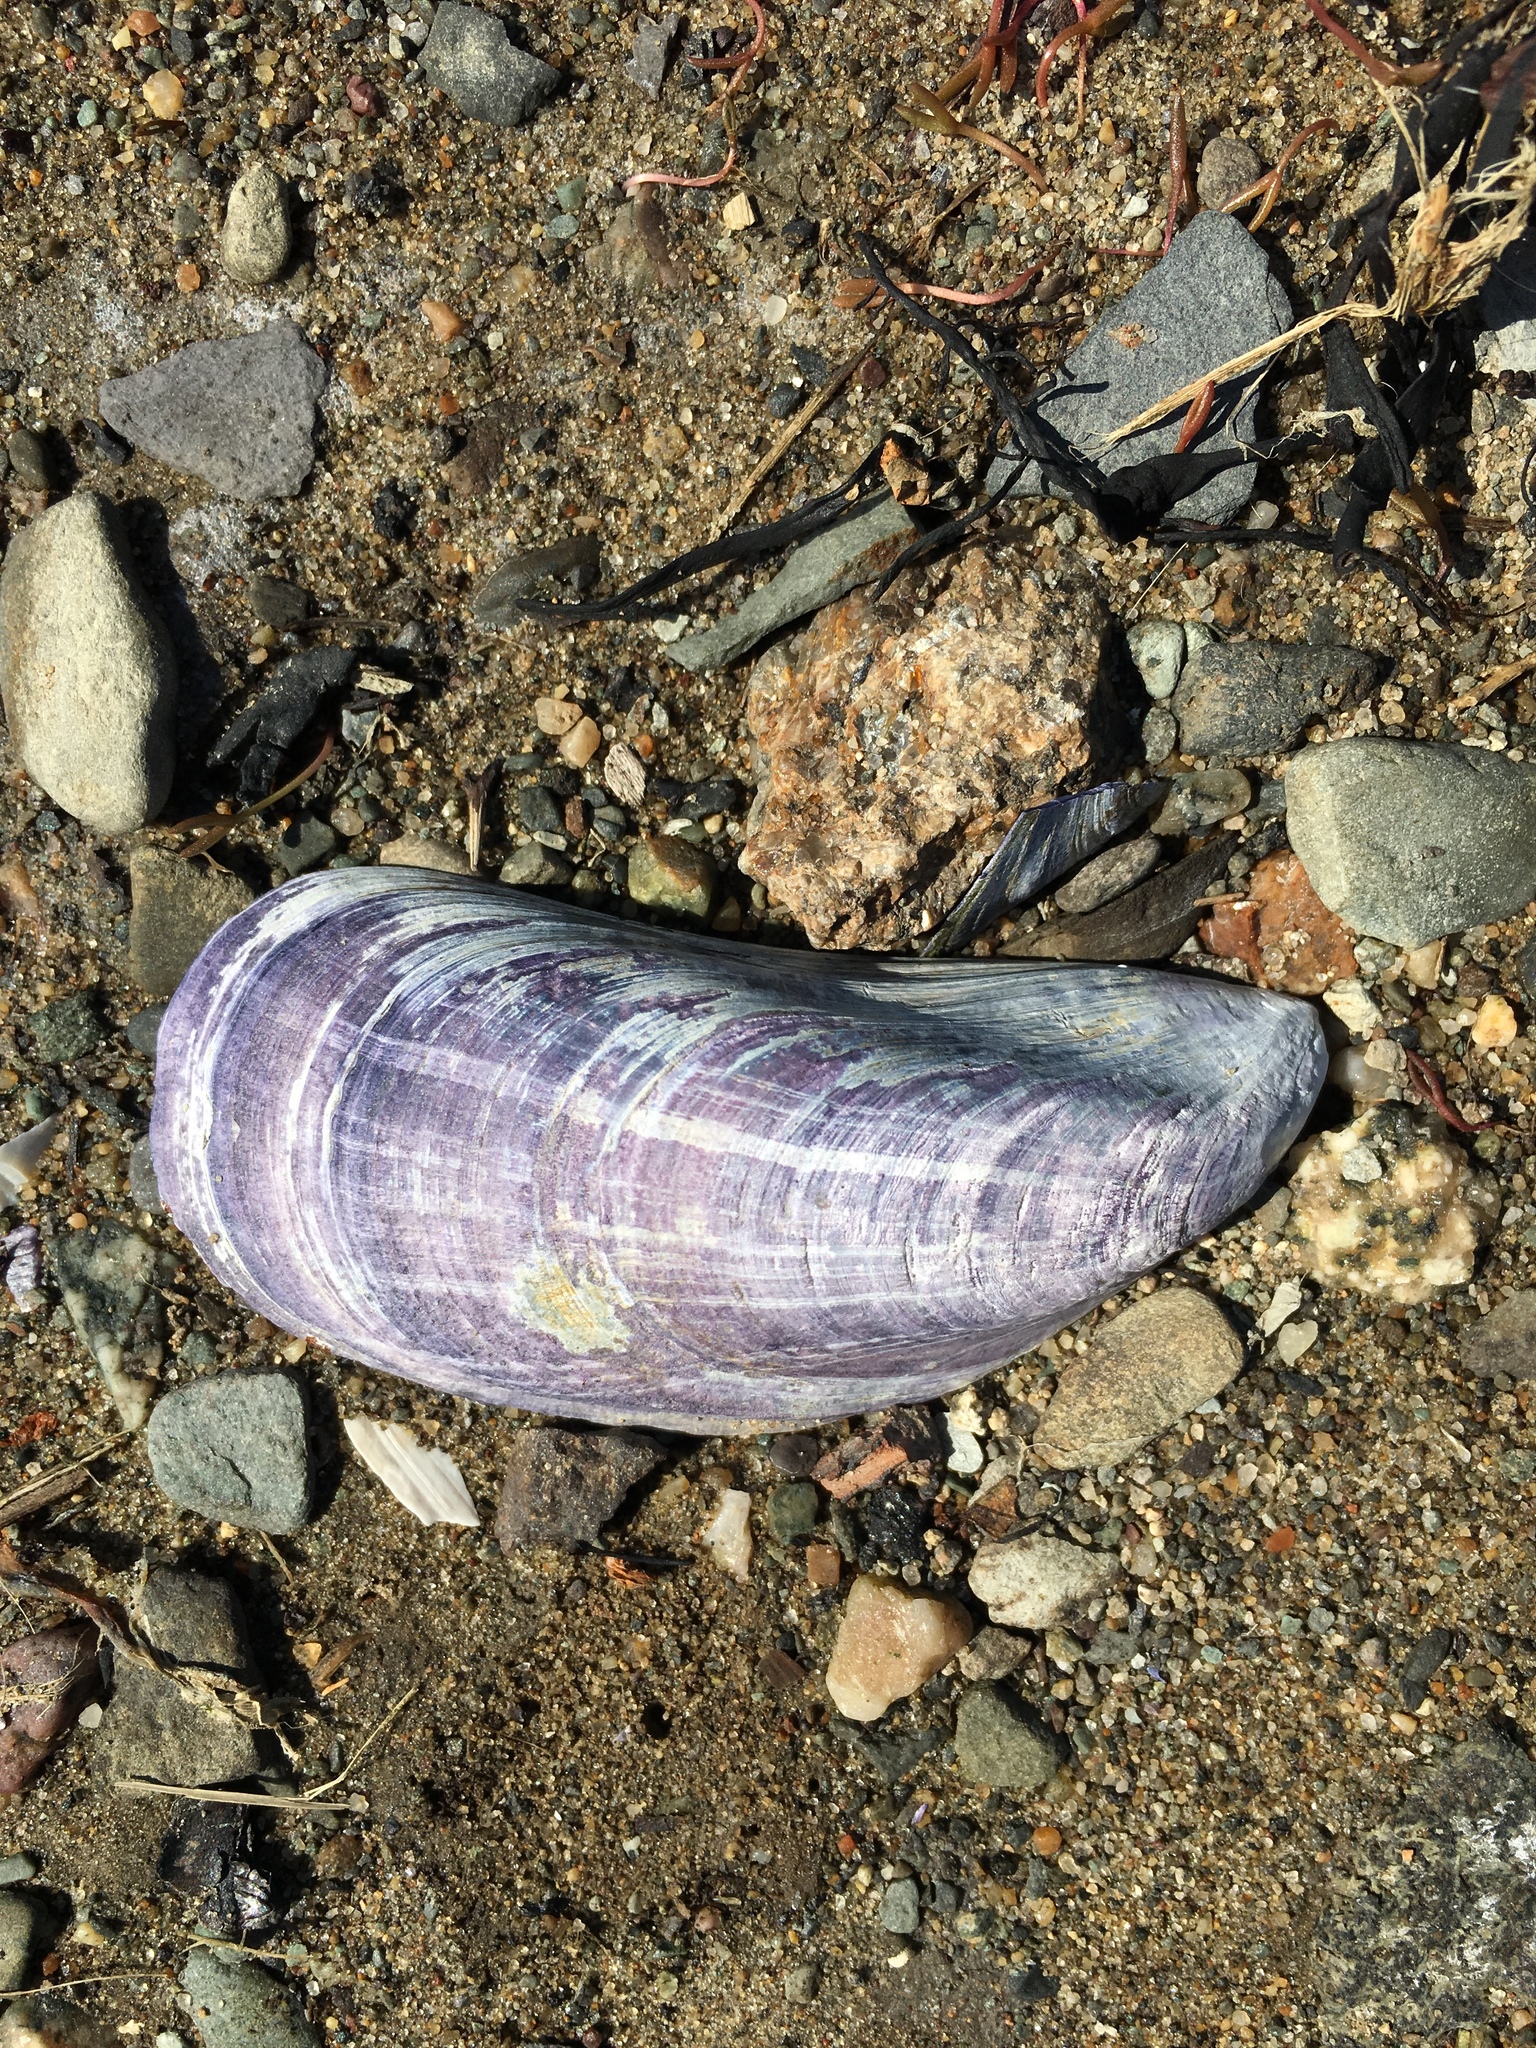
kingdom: Animalia
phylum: Mollusca
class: Bivalvia
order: Mytilida
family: Mytilidae
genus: Mytilus
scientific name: Mytilus edulis
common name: Blue mussel
